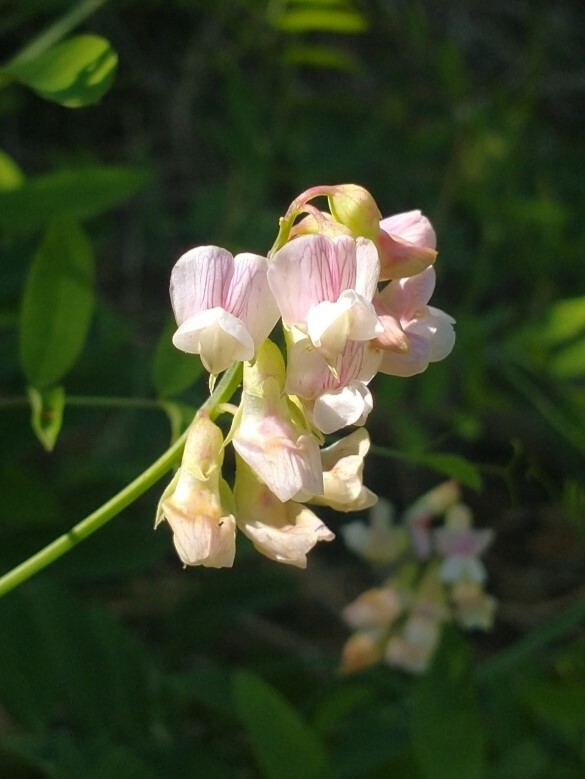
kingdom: Plantae
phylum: Tracheophyta
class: Magnoliopsida
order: Fabales
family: Fabaceae
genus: Lathyrus
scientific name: Lathyrus delnorticus
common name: Del norte-pea
